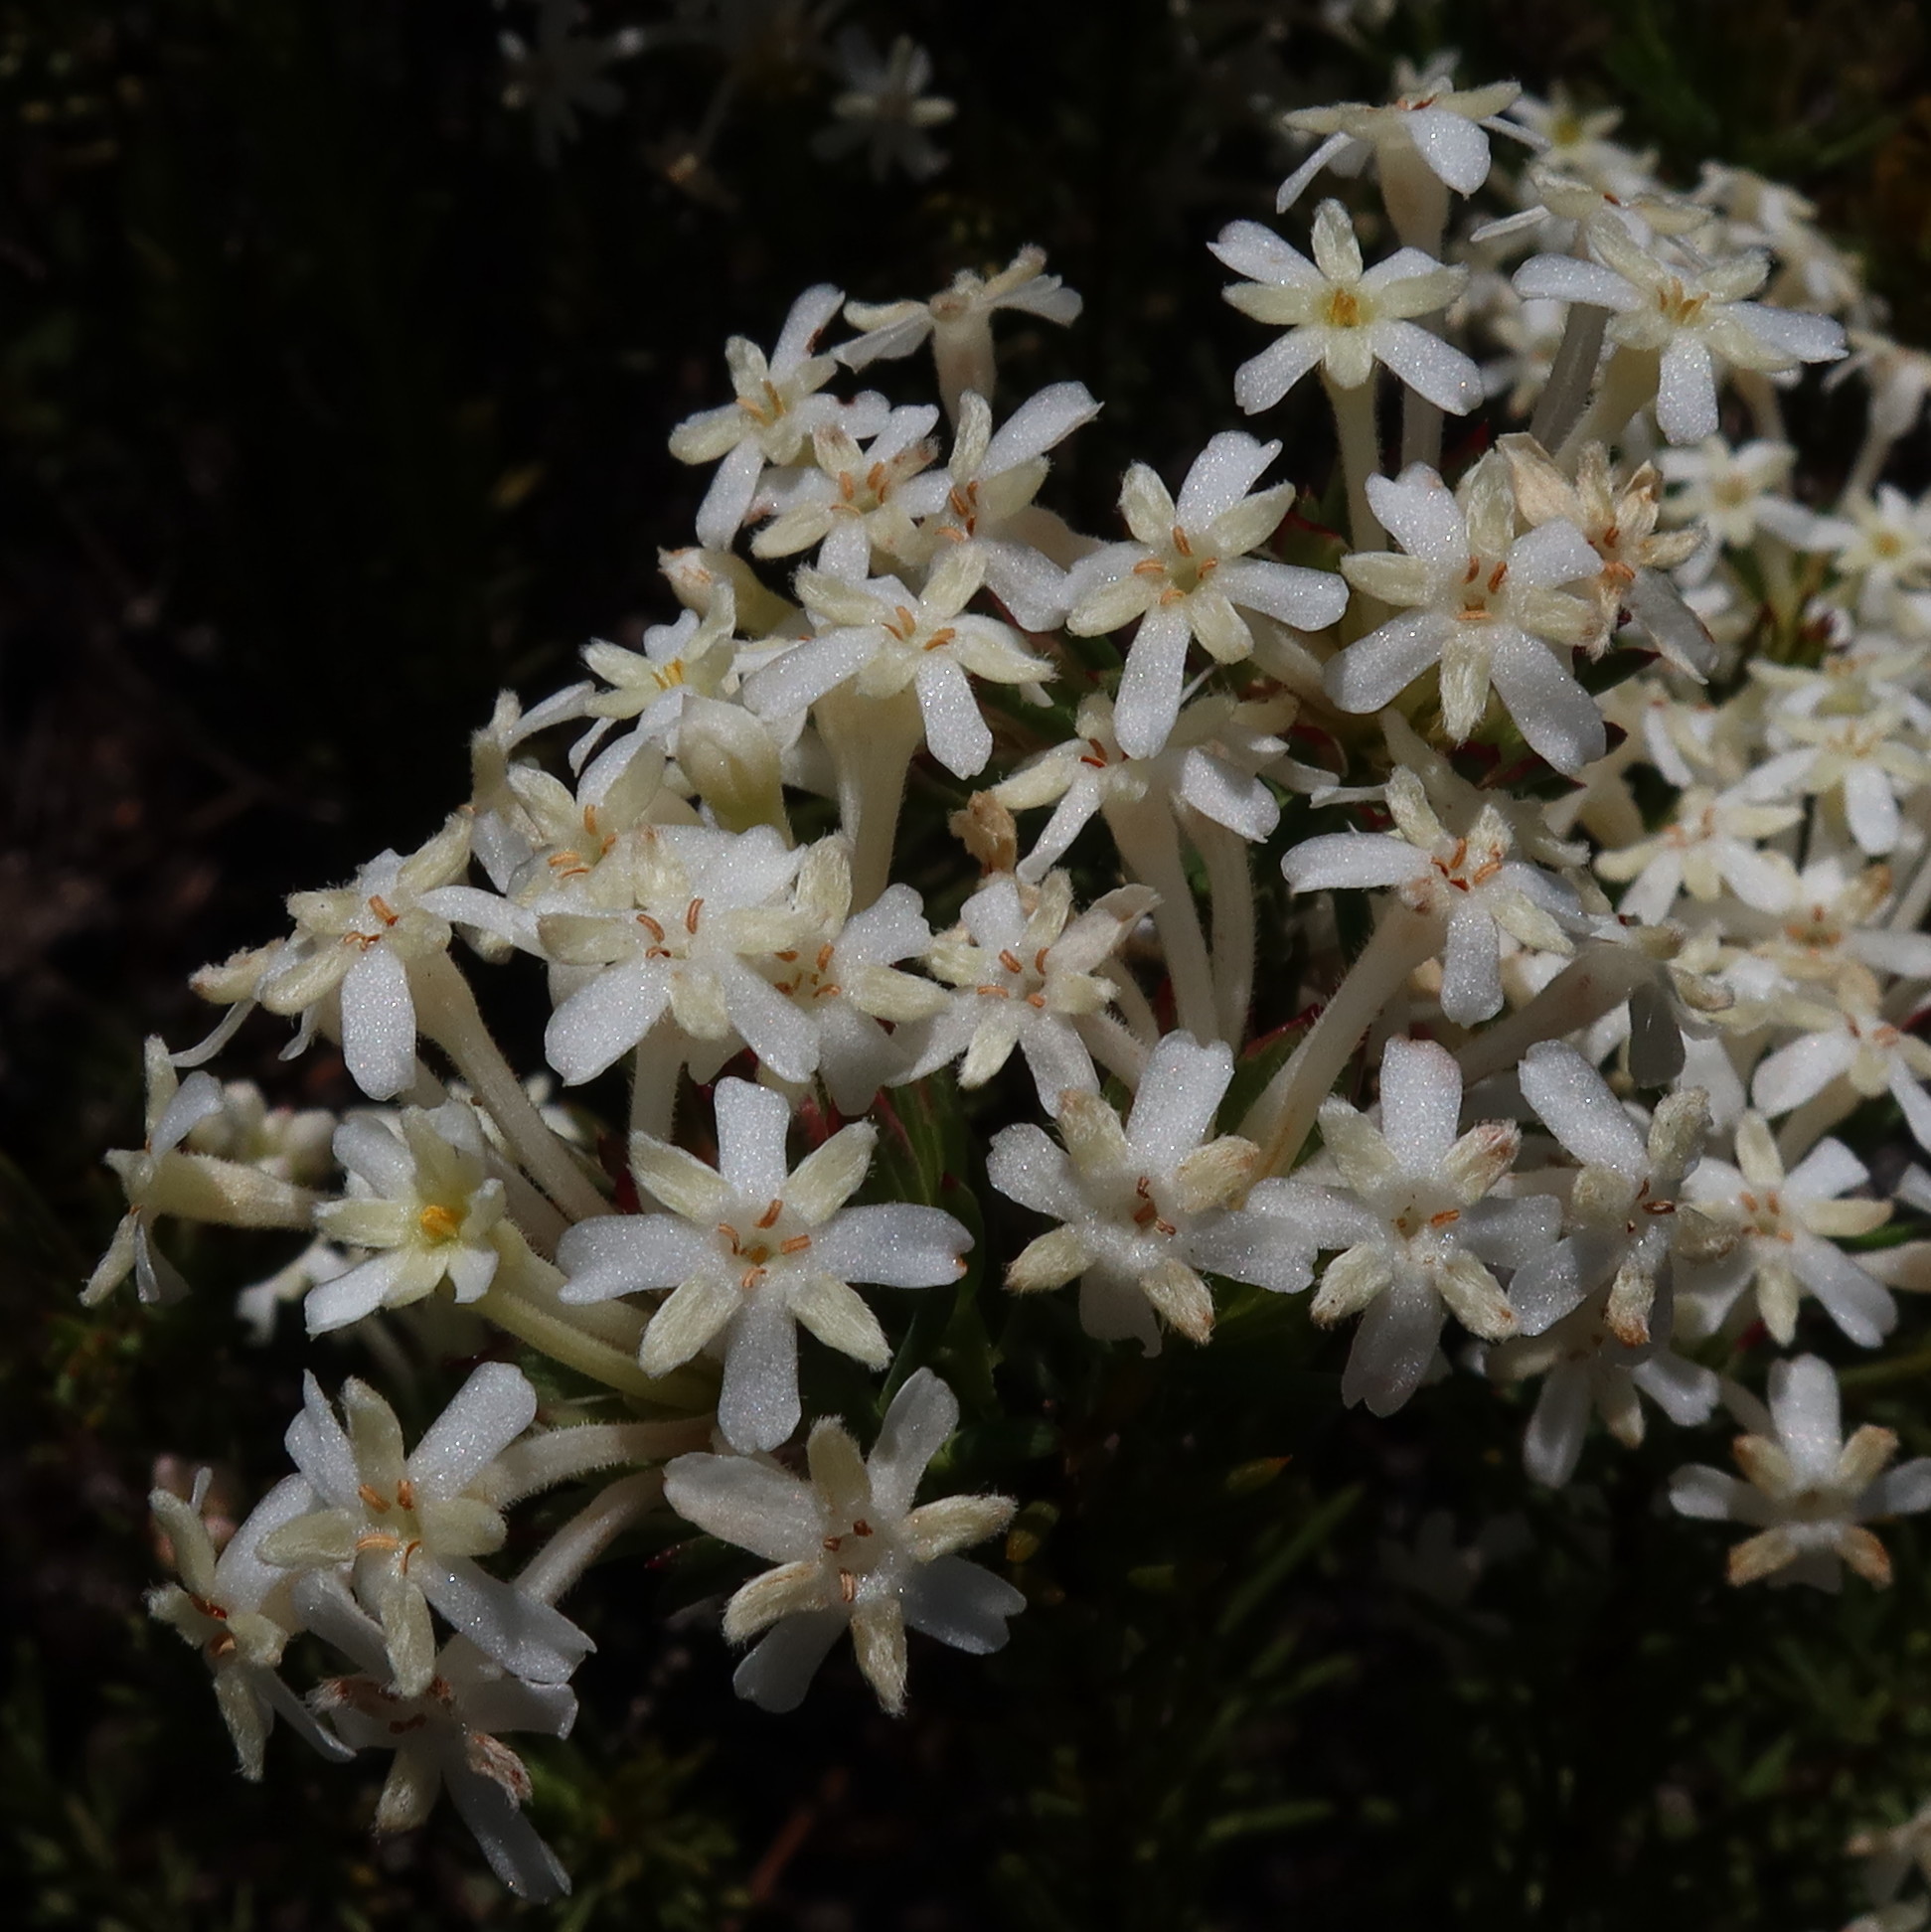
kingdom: Plantae
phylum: Tracheophyta
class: Magnoliopsida
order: Malvales
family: Thymelaeaceae
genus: Gnidia
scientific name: Gnidia pinifolia
